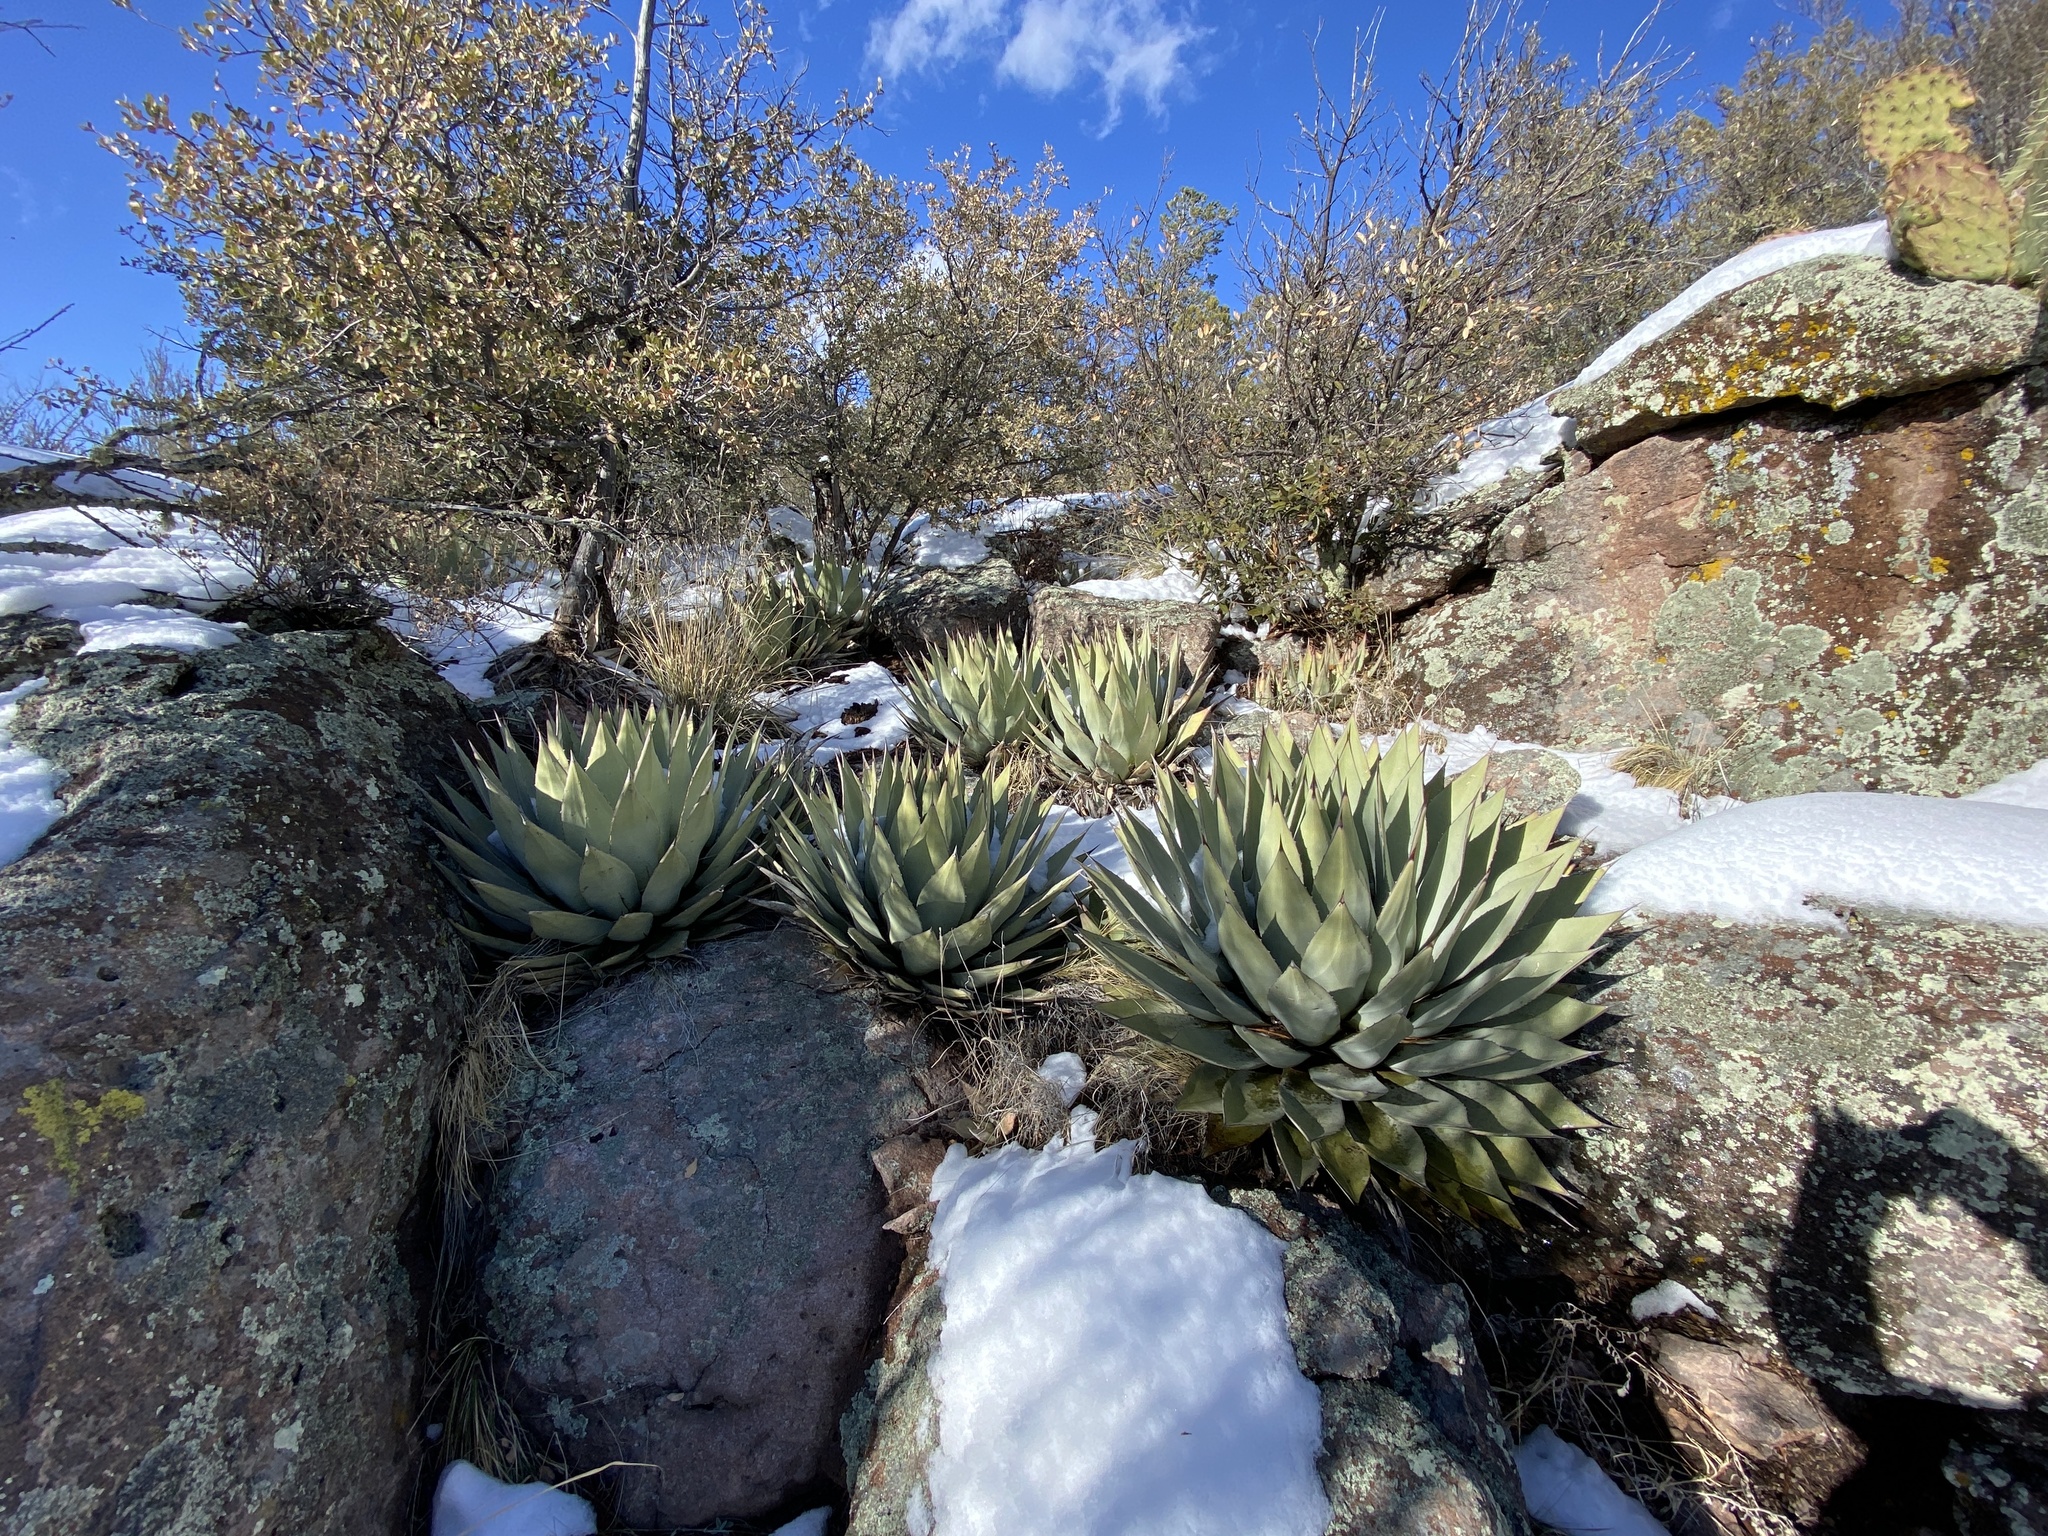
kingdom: Plantae
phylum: Tracheophyta
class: Liliopsida
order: Asparagales
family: Asparagaceae
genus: Agave
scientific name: Agave parryi
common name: Parry's agave
